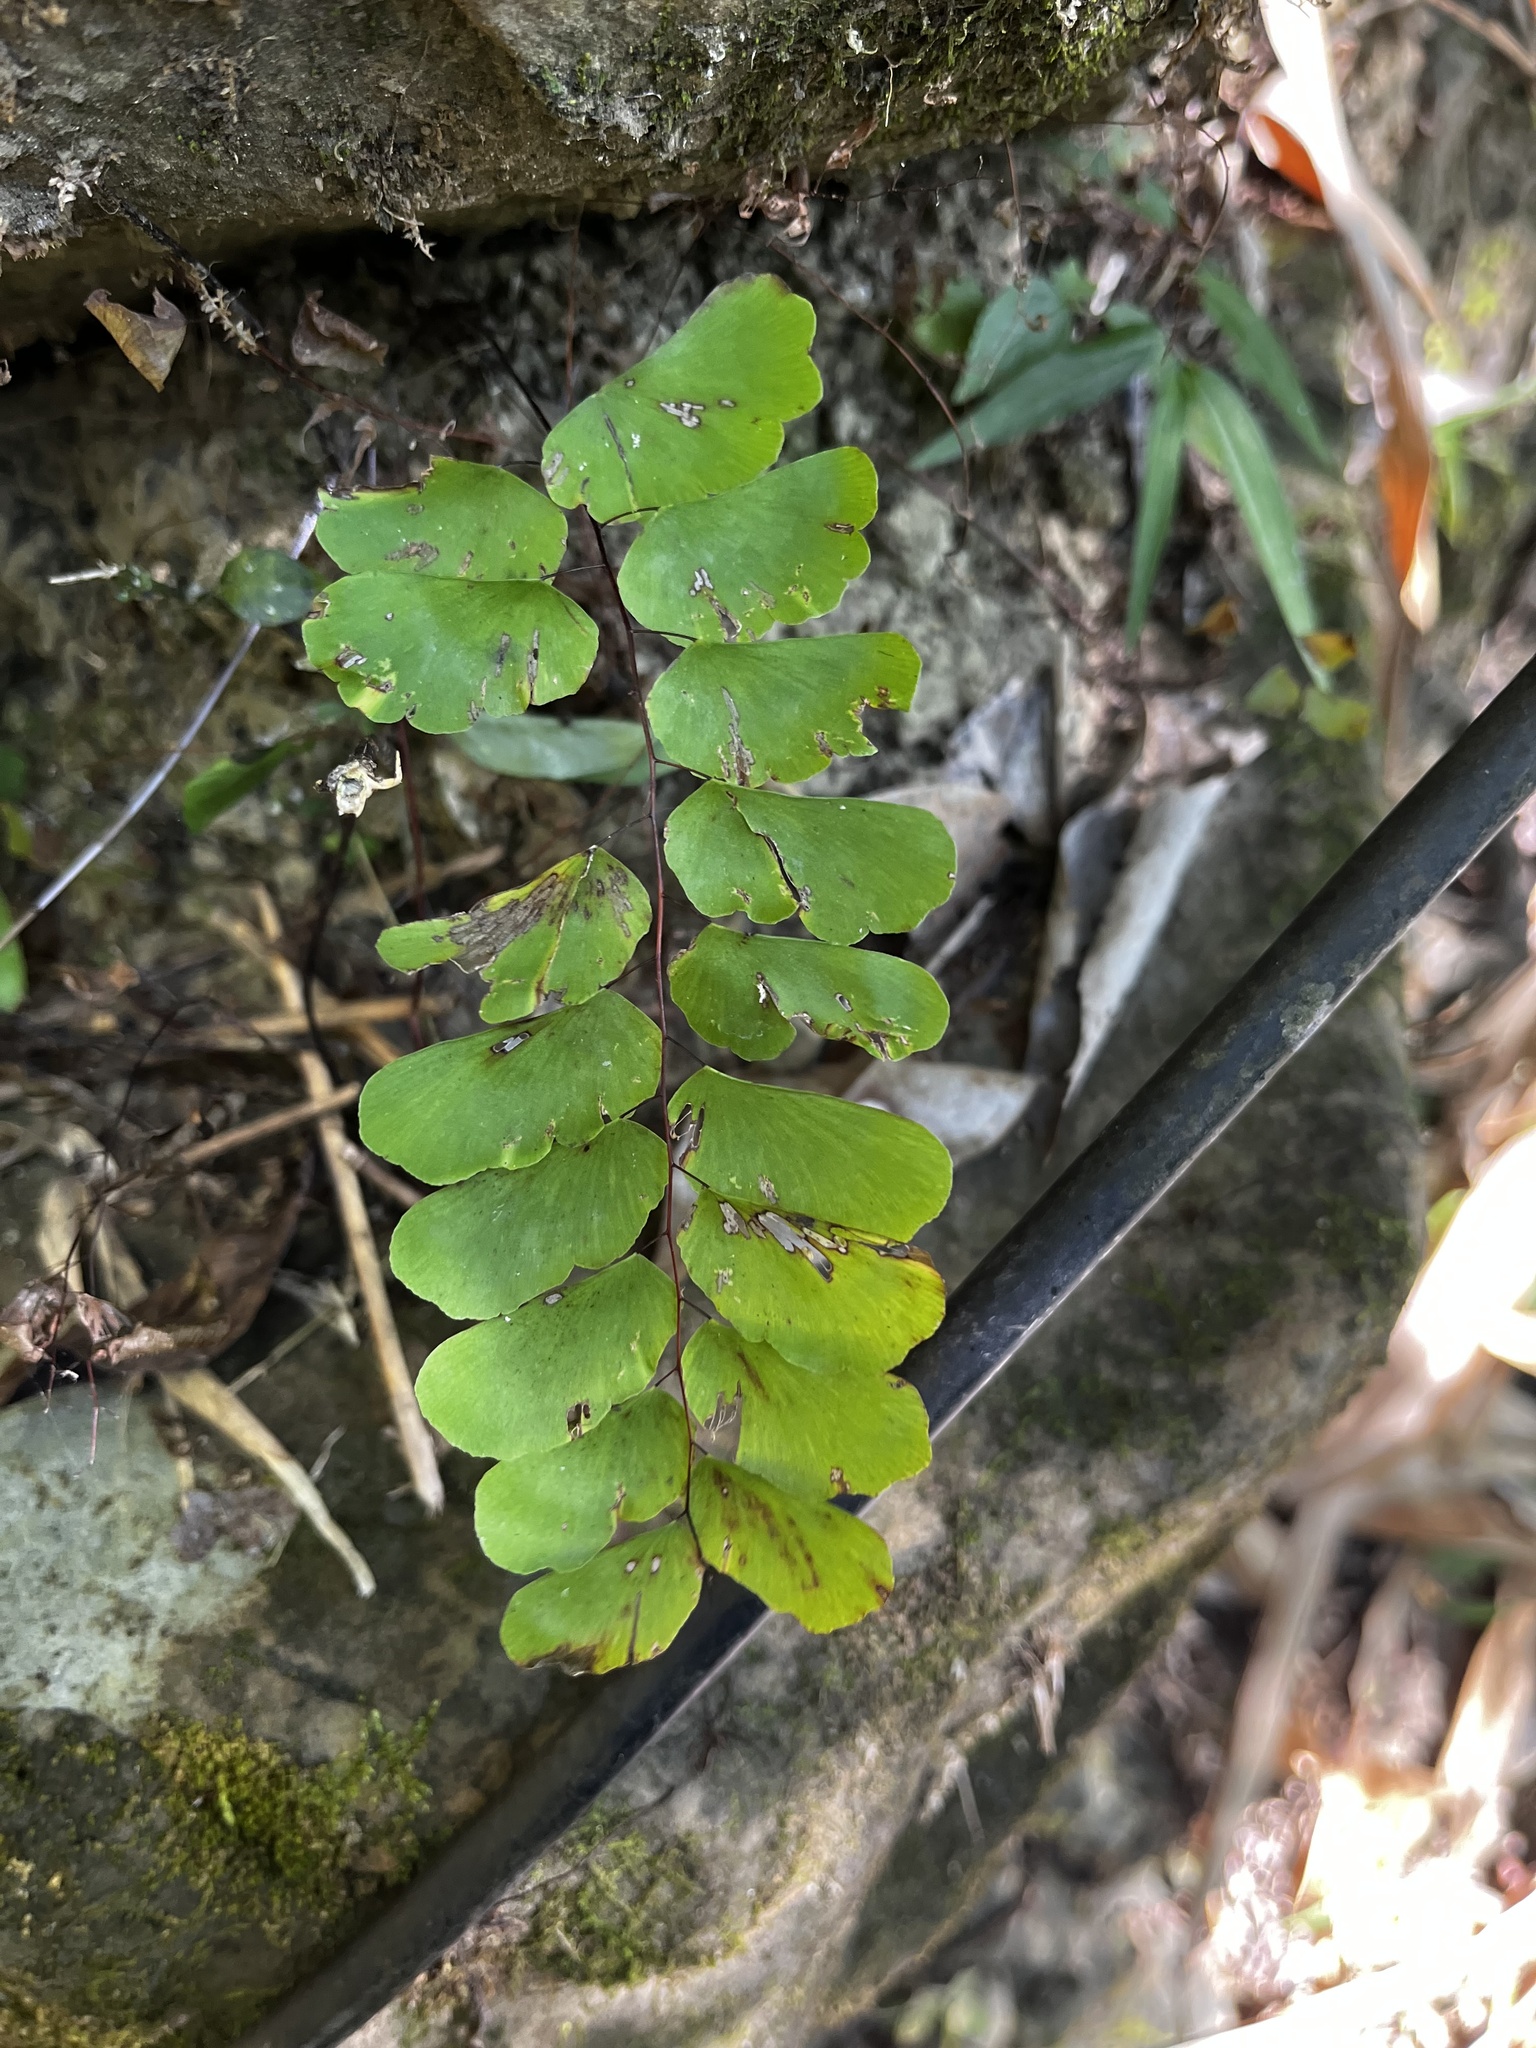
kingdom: Plantae
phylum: Tracheophyta
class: Polypodiopsida
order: Polypodiales
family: Pteridaceae
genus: Adiantum
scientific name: Adiantum philippense
